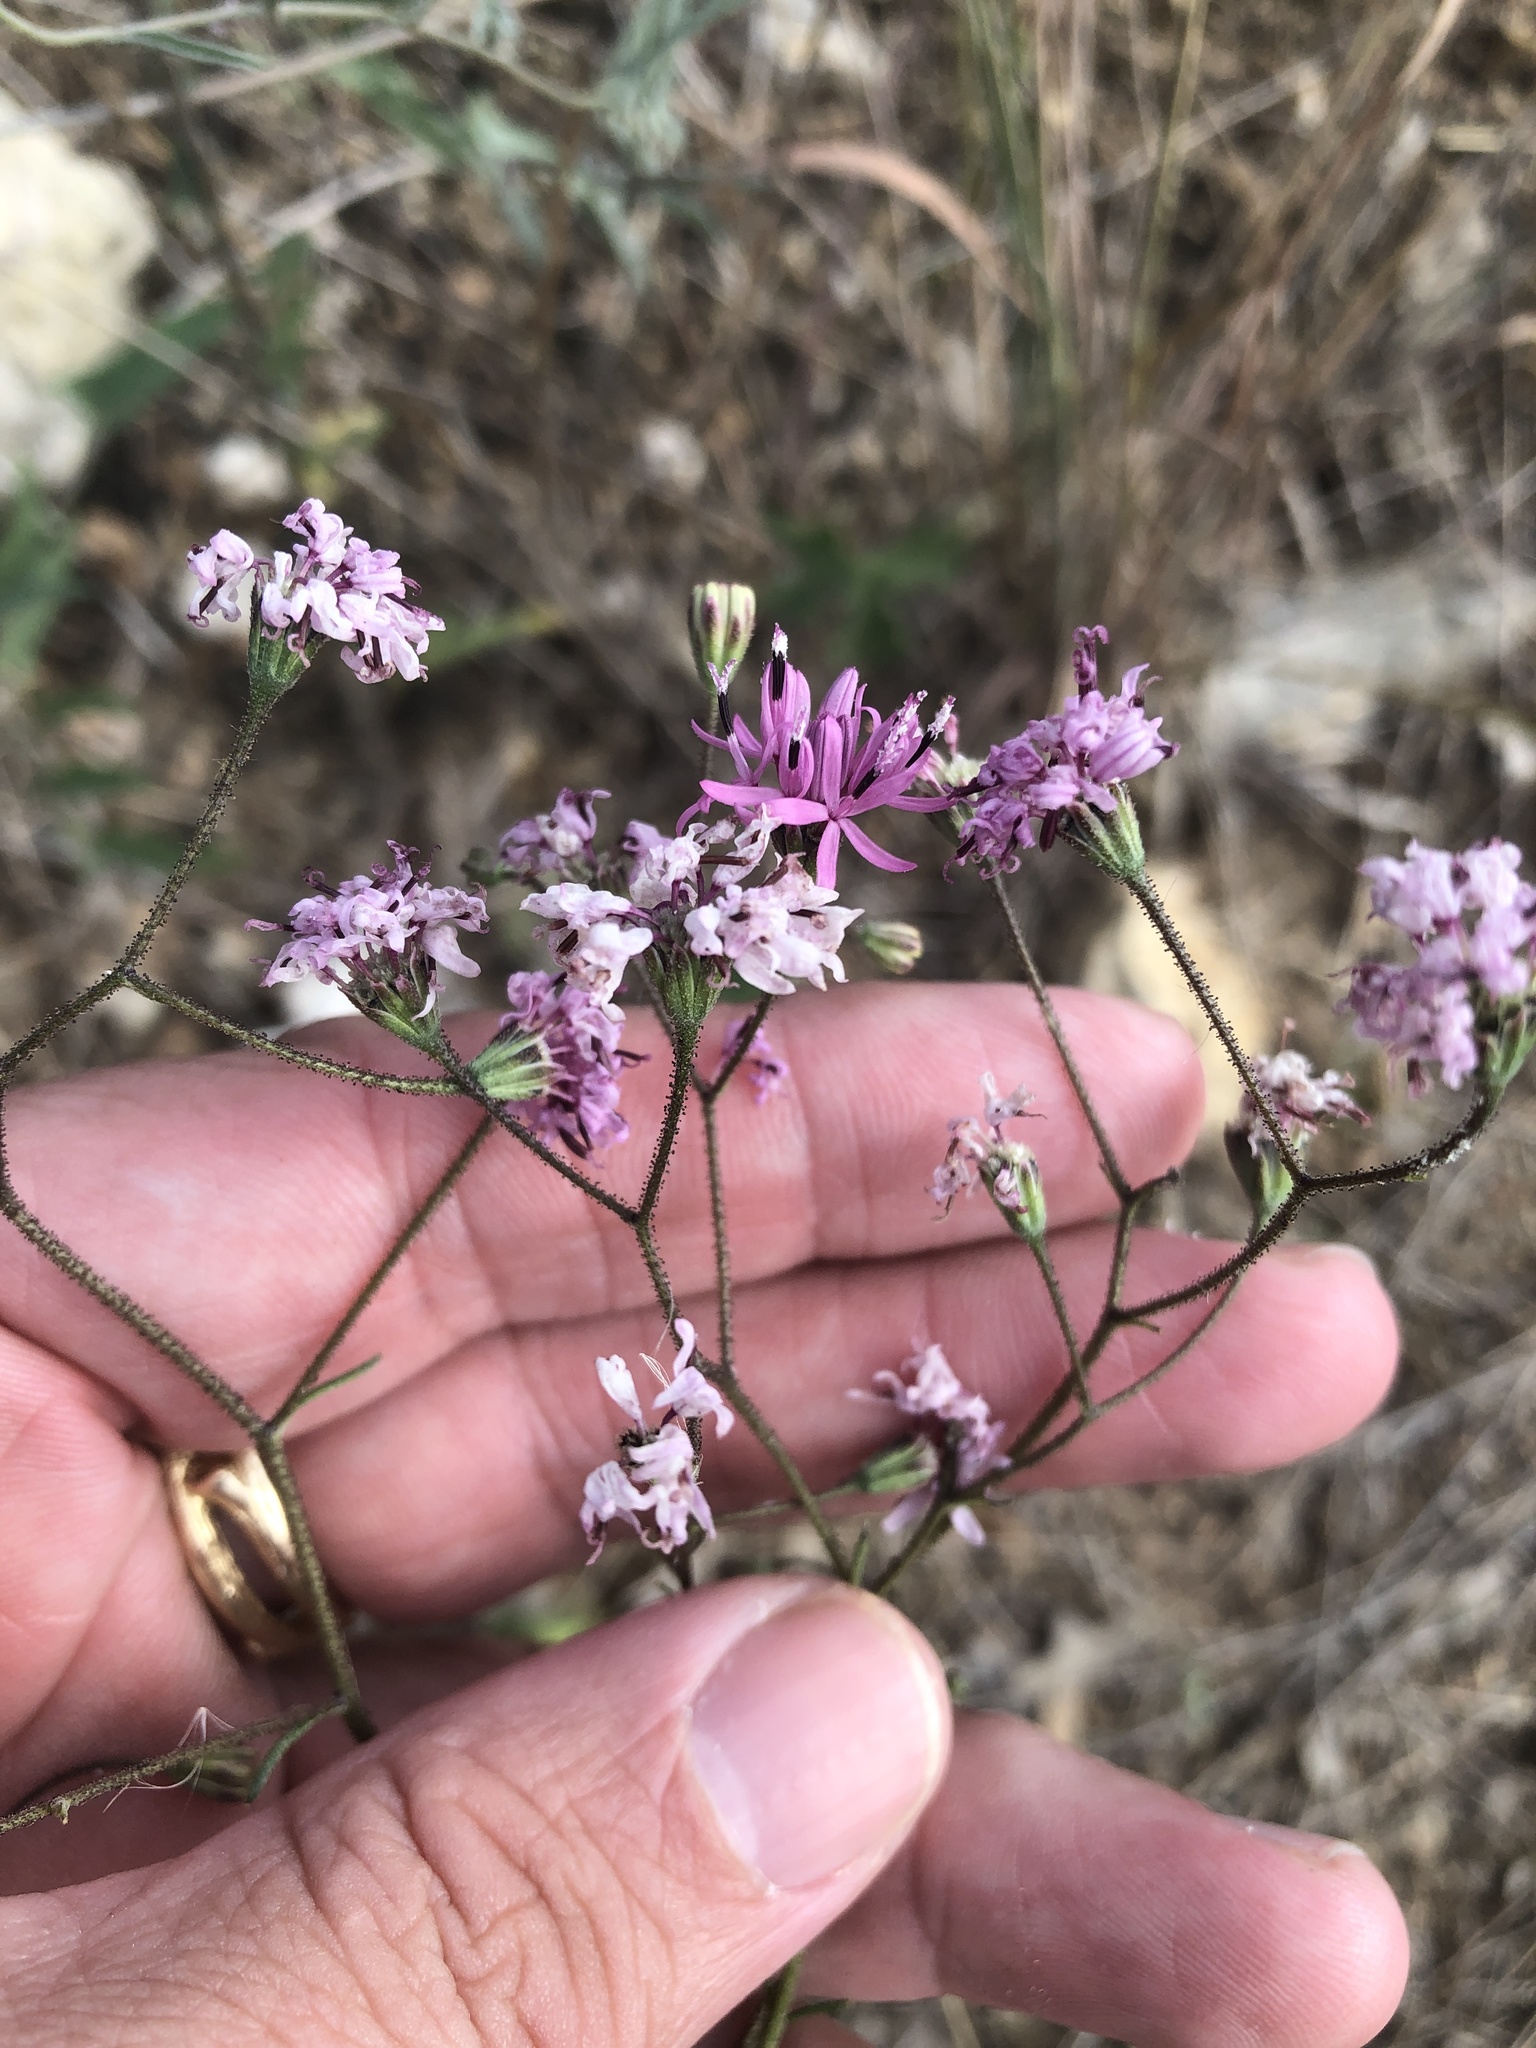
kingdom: Plantae
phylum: Tracheophyta
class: Magnoliopsida
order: Asterales
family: Asteraceae
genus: Palafoxia
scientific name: Palafoxia callosa
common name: Small palafox
